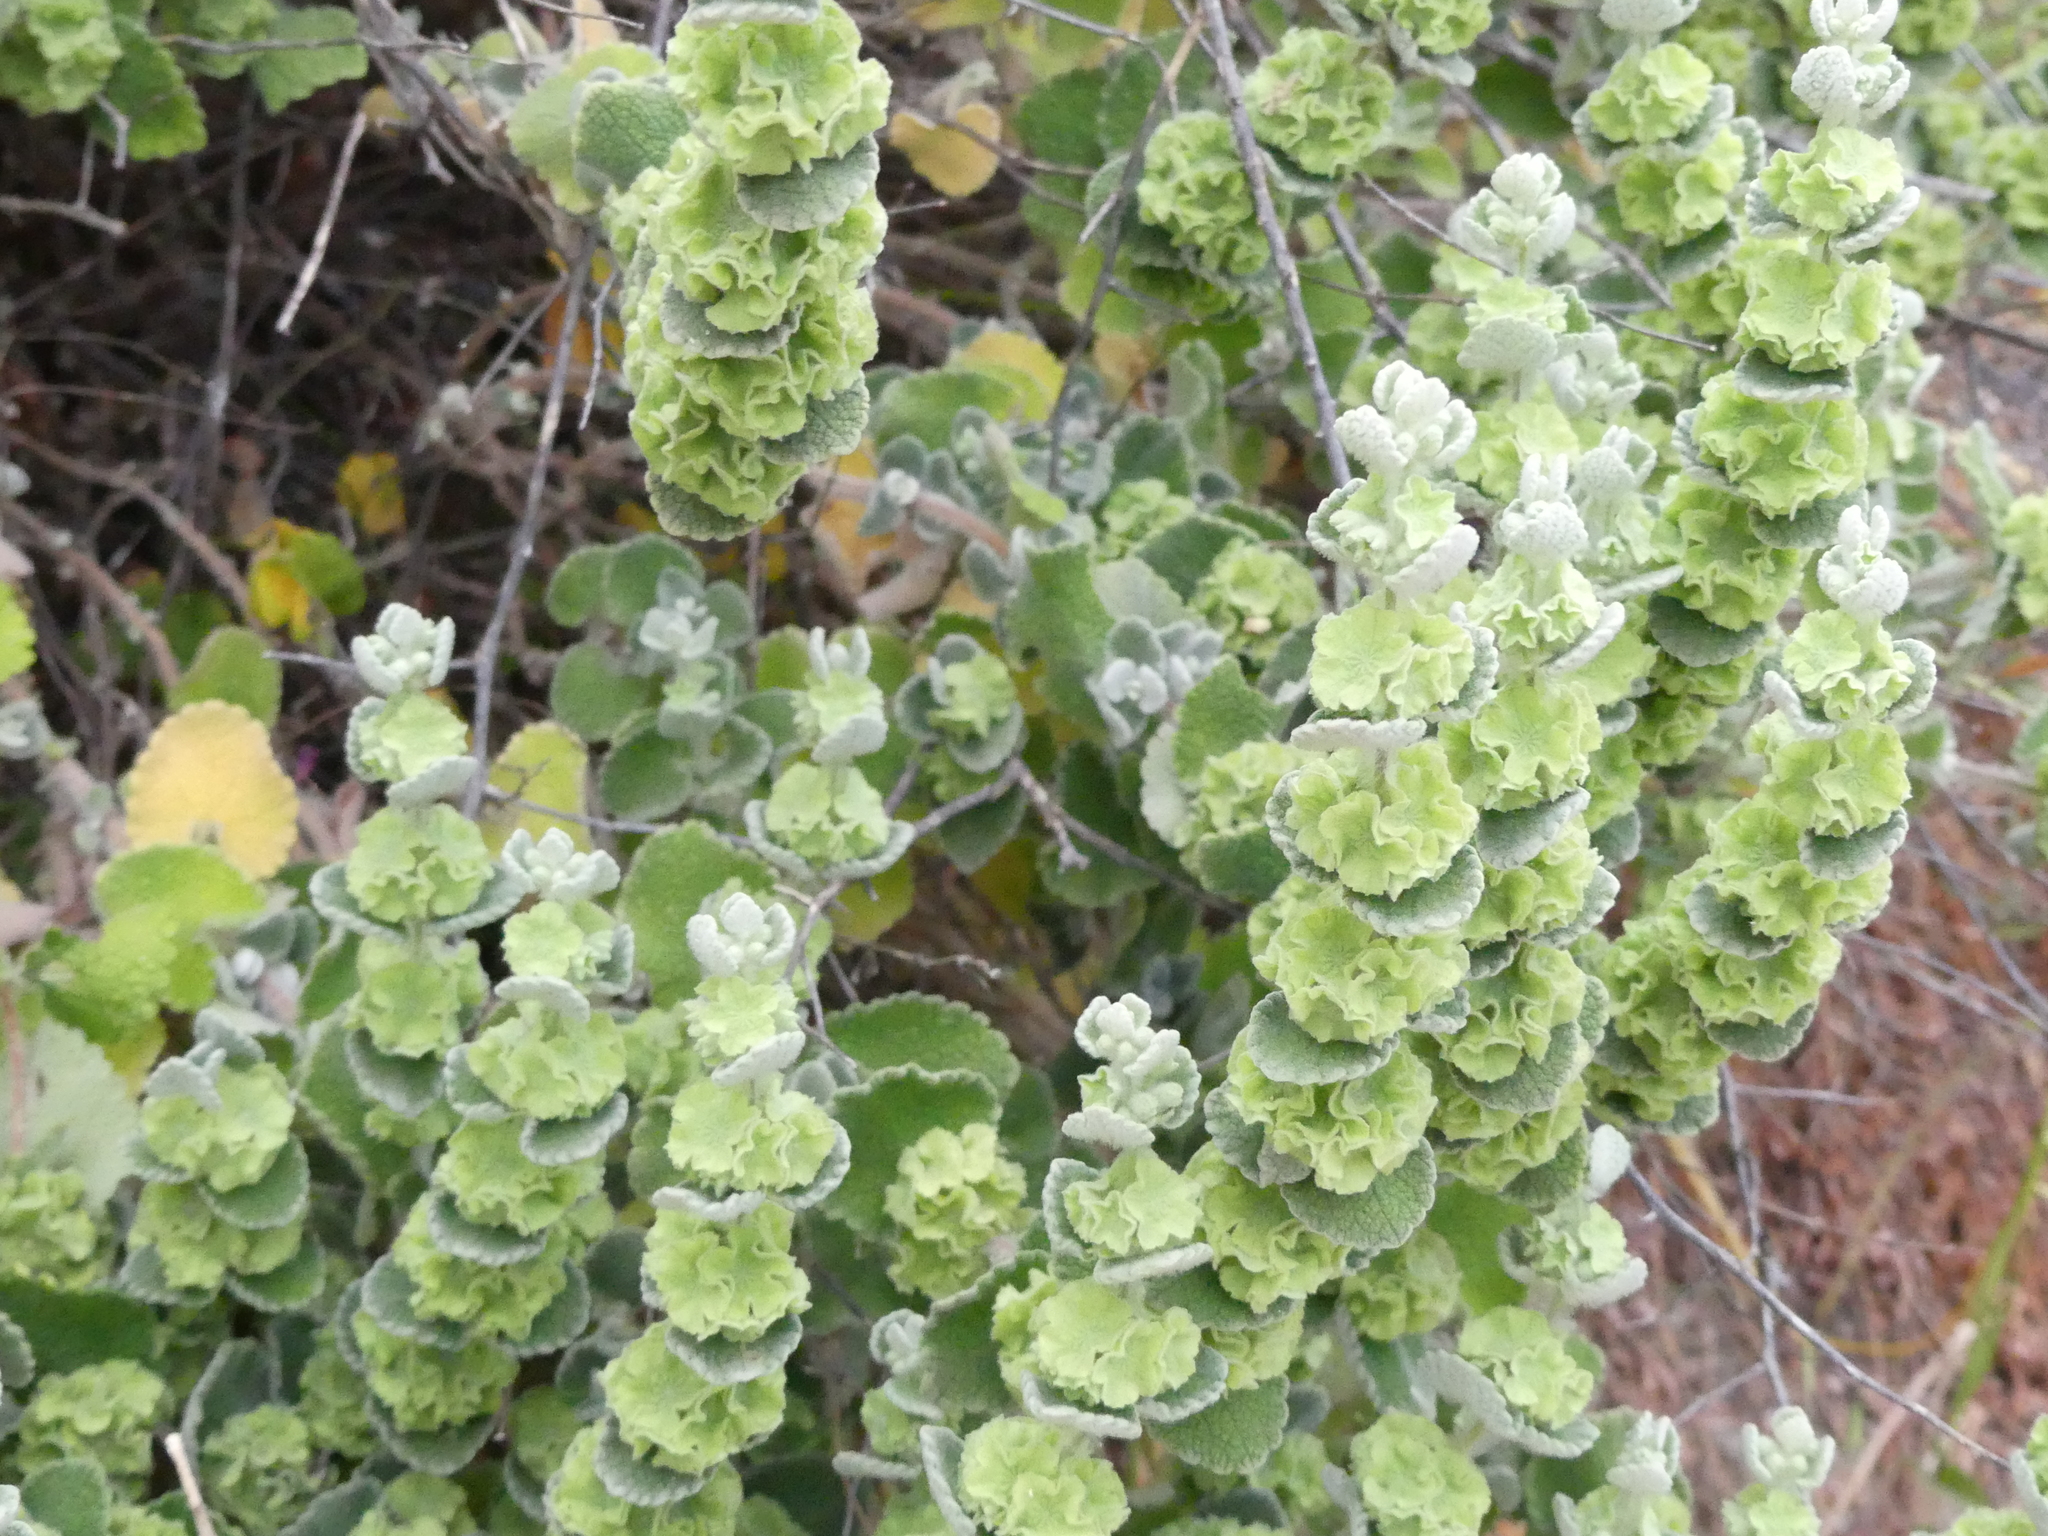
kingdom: Plantae
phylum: Tracheophyta
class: Magnoliopsida
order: Lamiales
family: Lamiaceae
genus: Pseudodictamnus
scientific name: Pseudodictamnus acetabulosus
